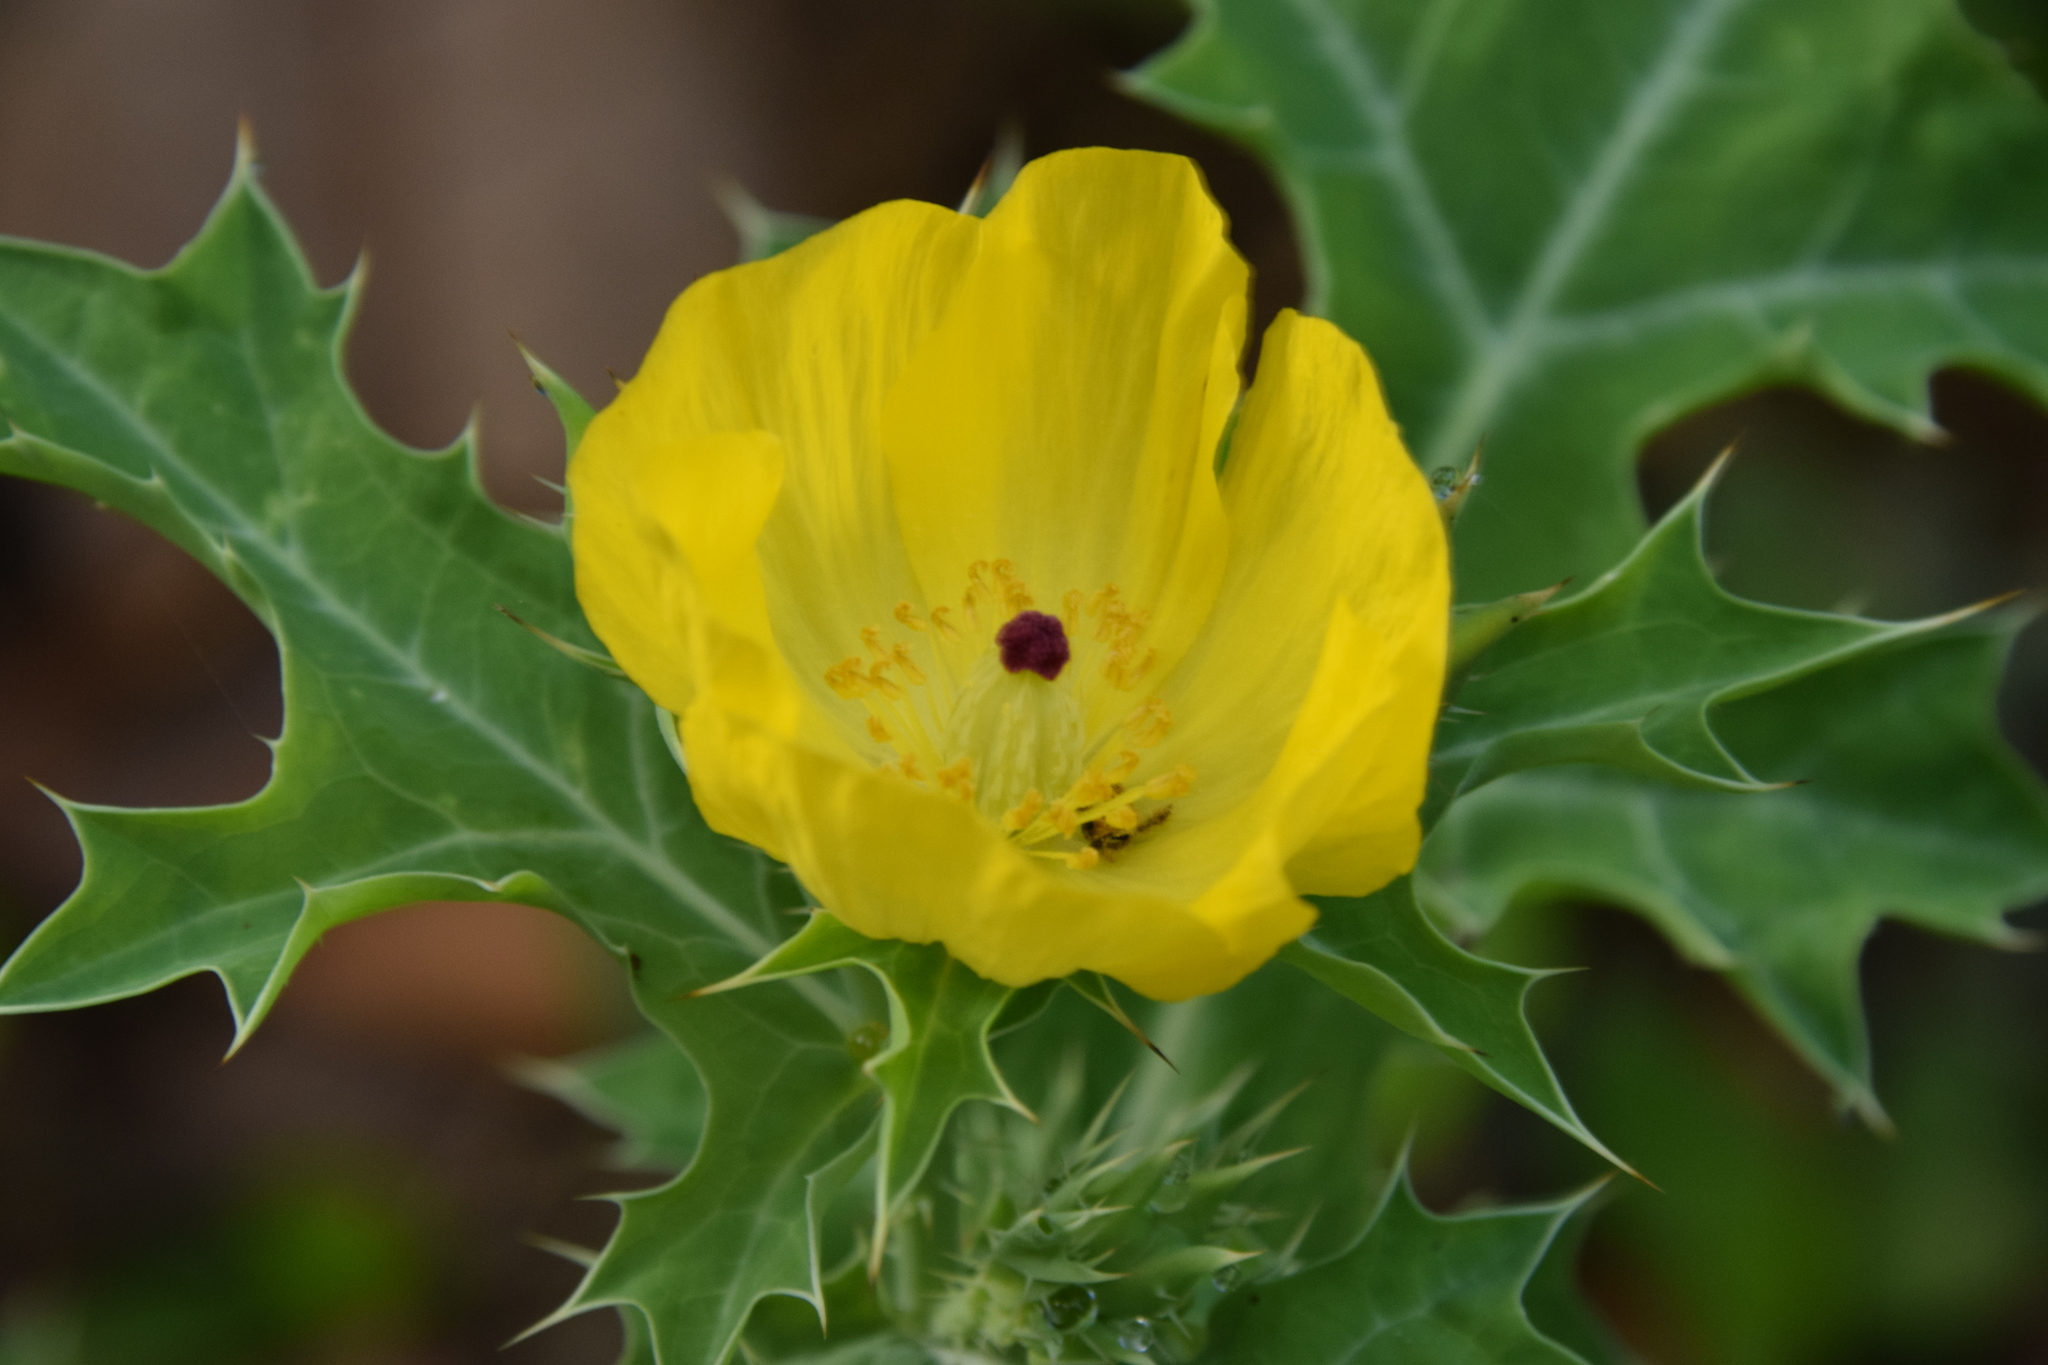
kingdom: Plantae
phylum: Tracheophyta
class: Magnoliopsida
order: Ranunculales
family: Papaveraceae
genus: Argemone
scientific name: Argemone mexicana
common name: Mexican poppy
